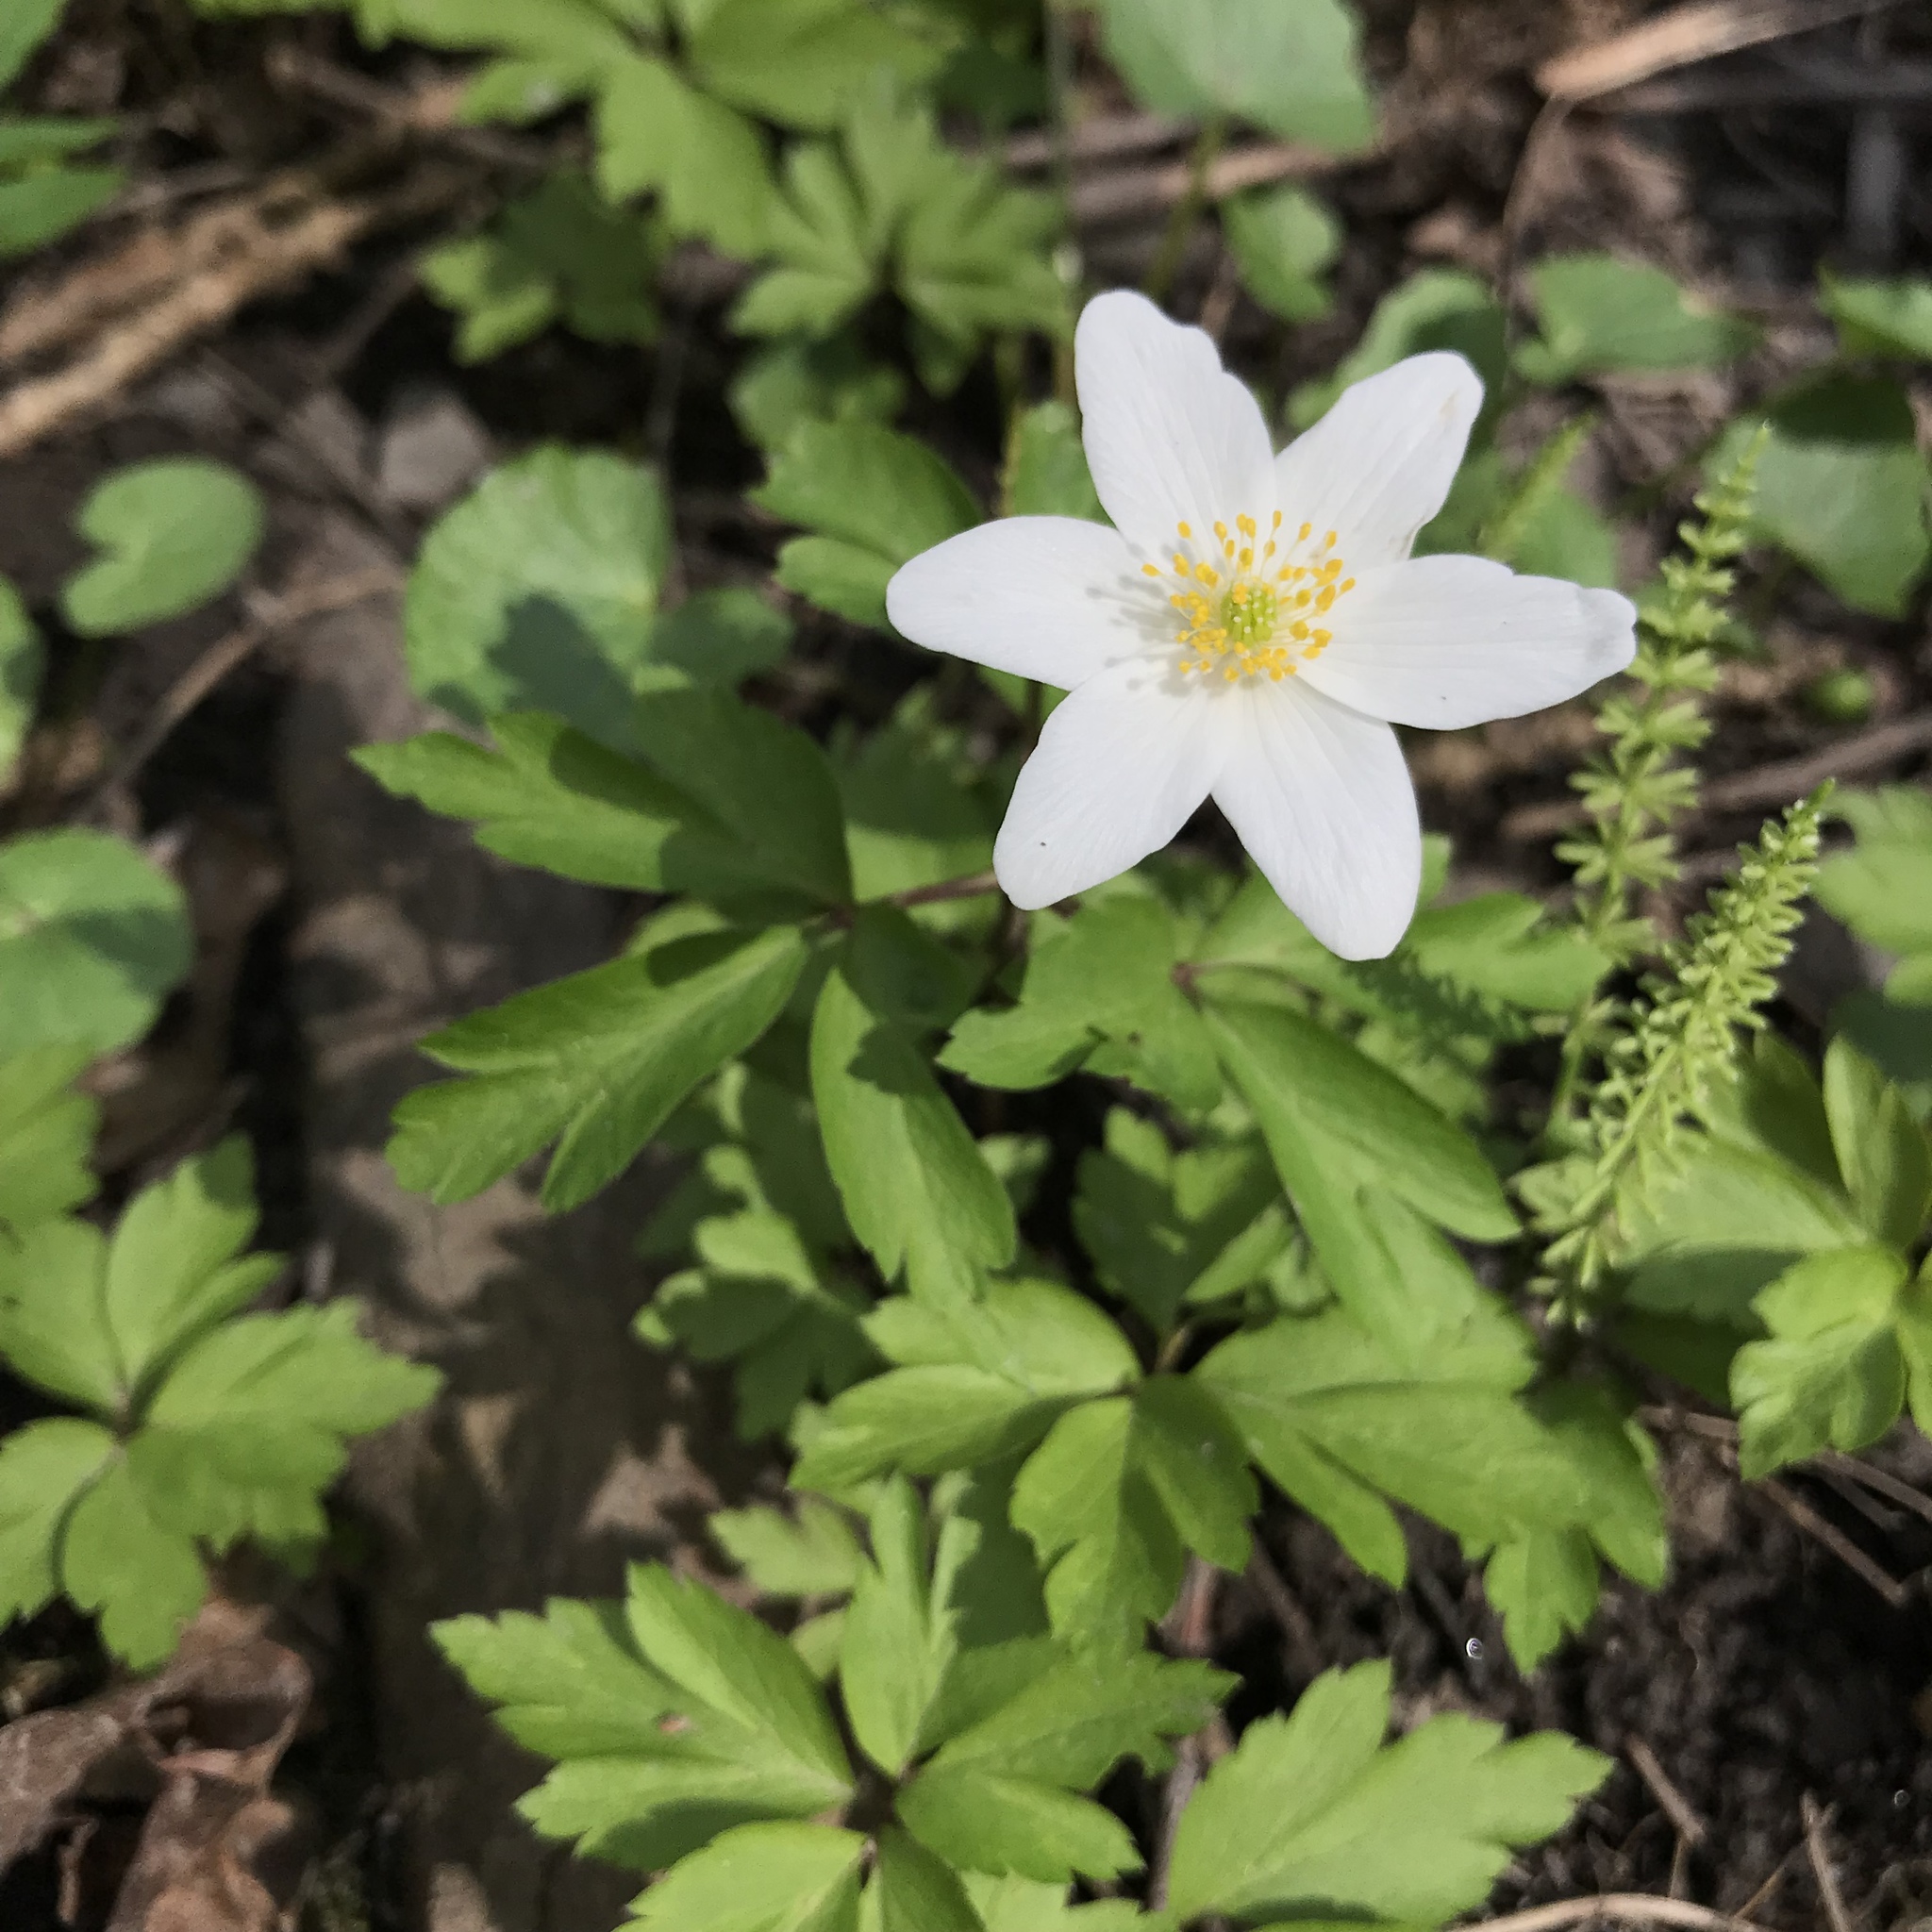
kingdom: Plantae
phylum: Tracheophyta
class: Magnoliopsida
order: Ranunculales
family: Ranunculaceae
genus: Anemone
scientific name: Anemone nemorosa
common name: Wood anemone
